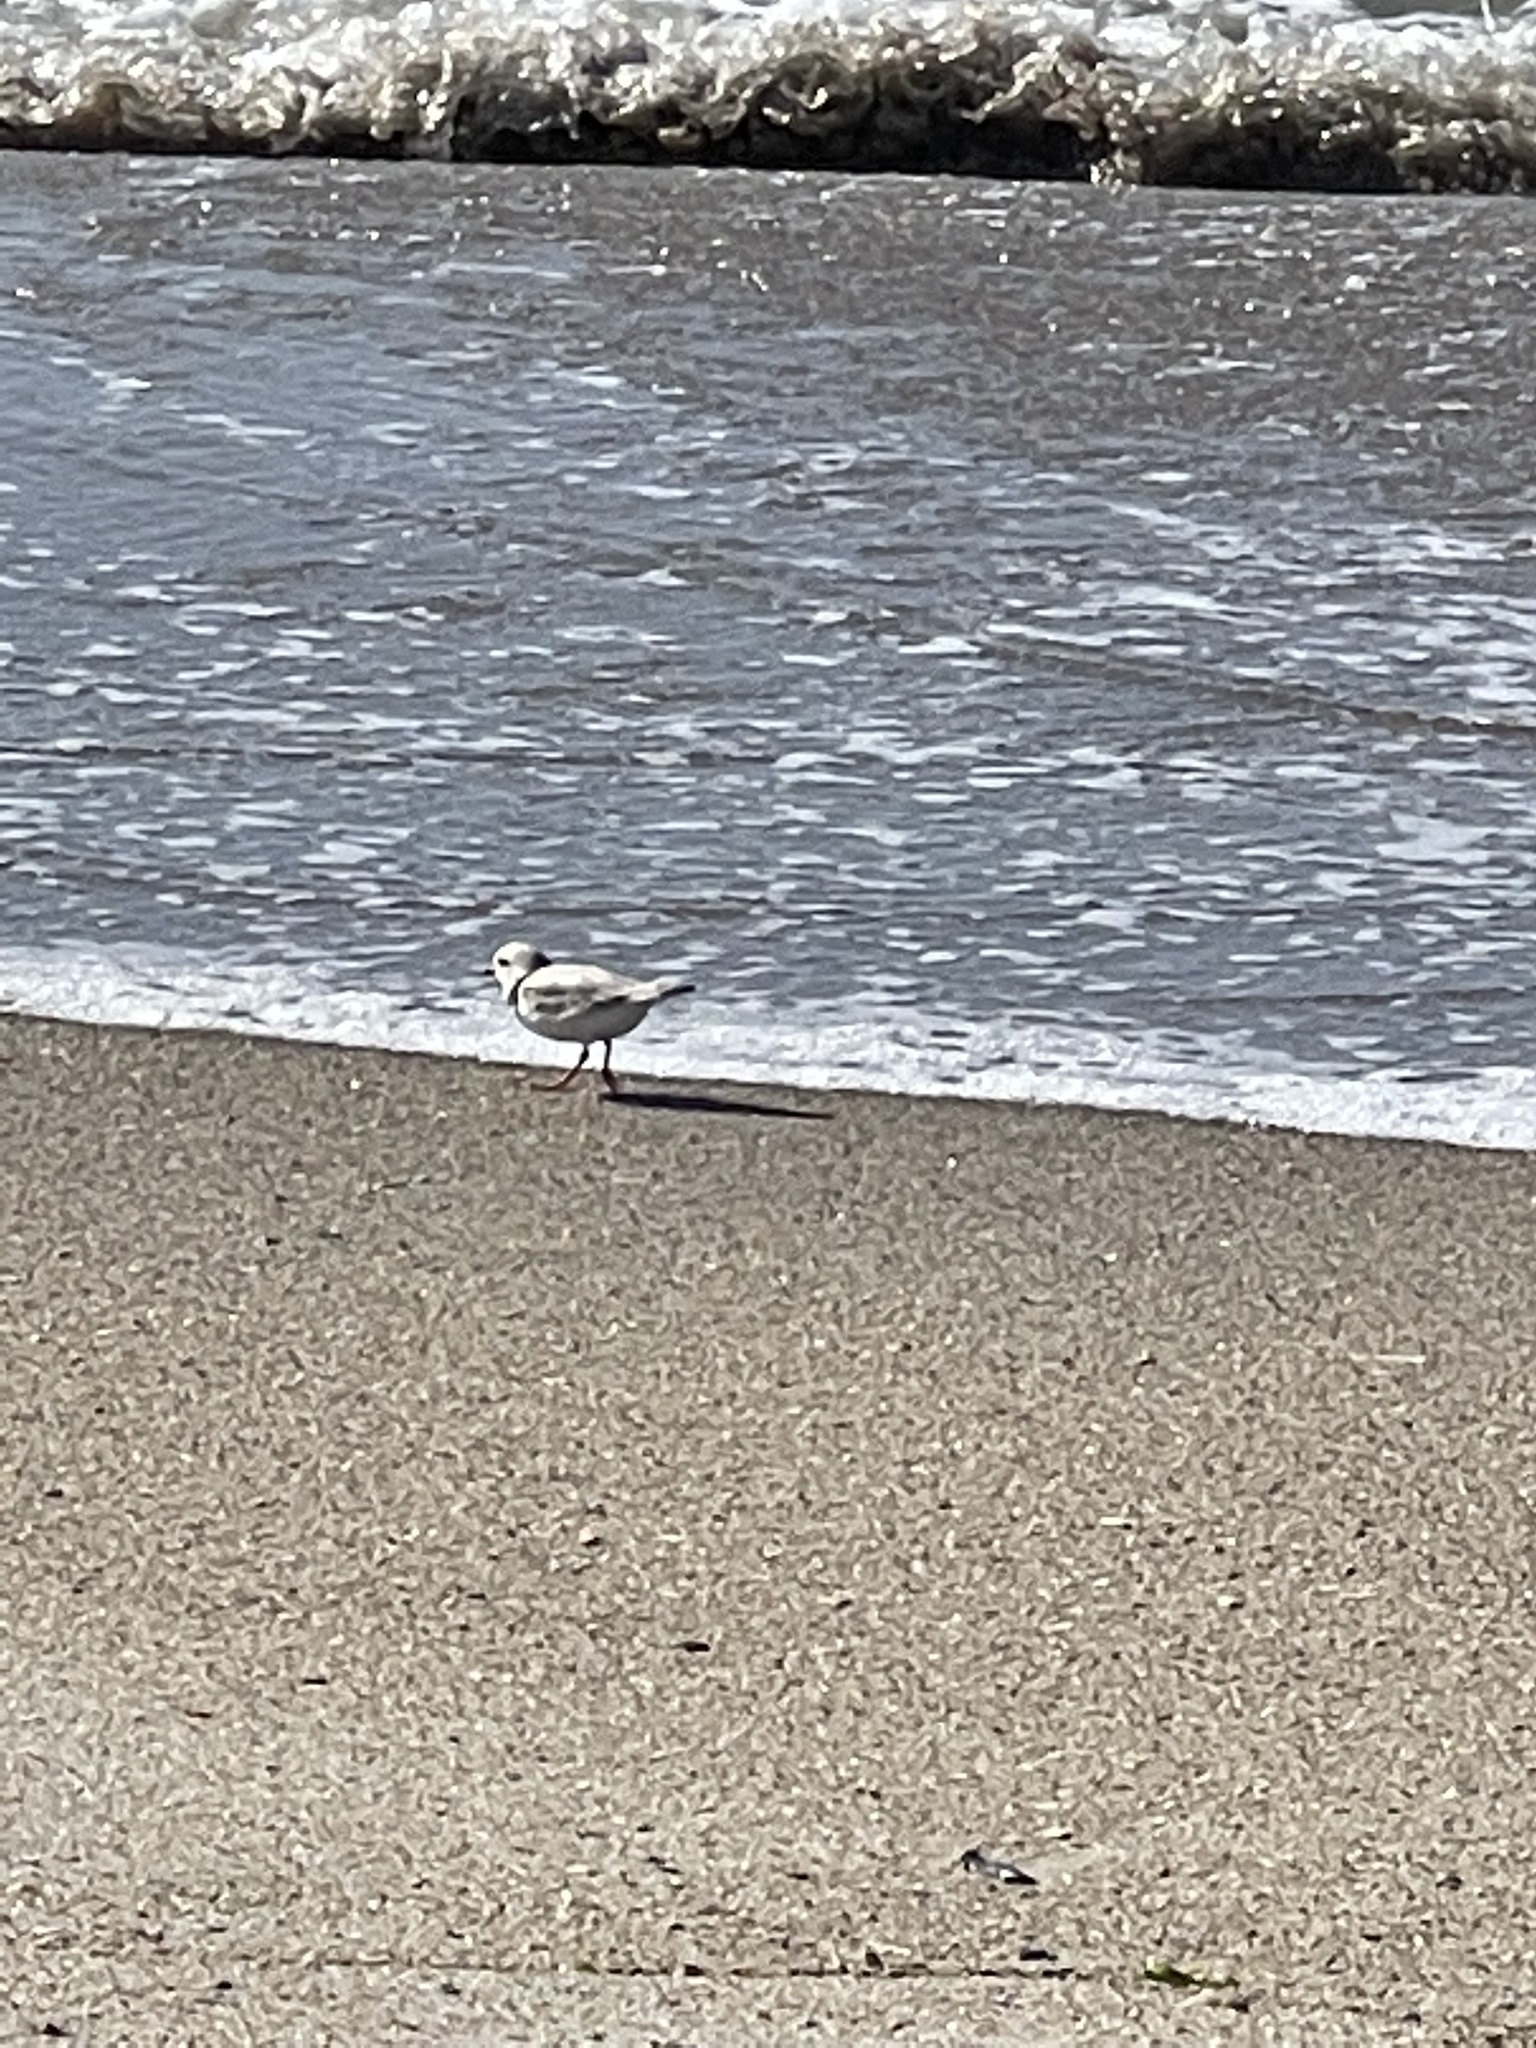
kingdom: Animalia
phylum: Chordata
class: Aves
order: Charadriiformes
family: Charadriidae
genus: Charadrius
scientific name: Charadrius melodus
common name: Piping plover
